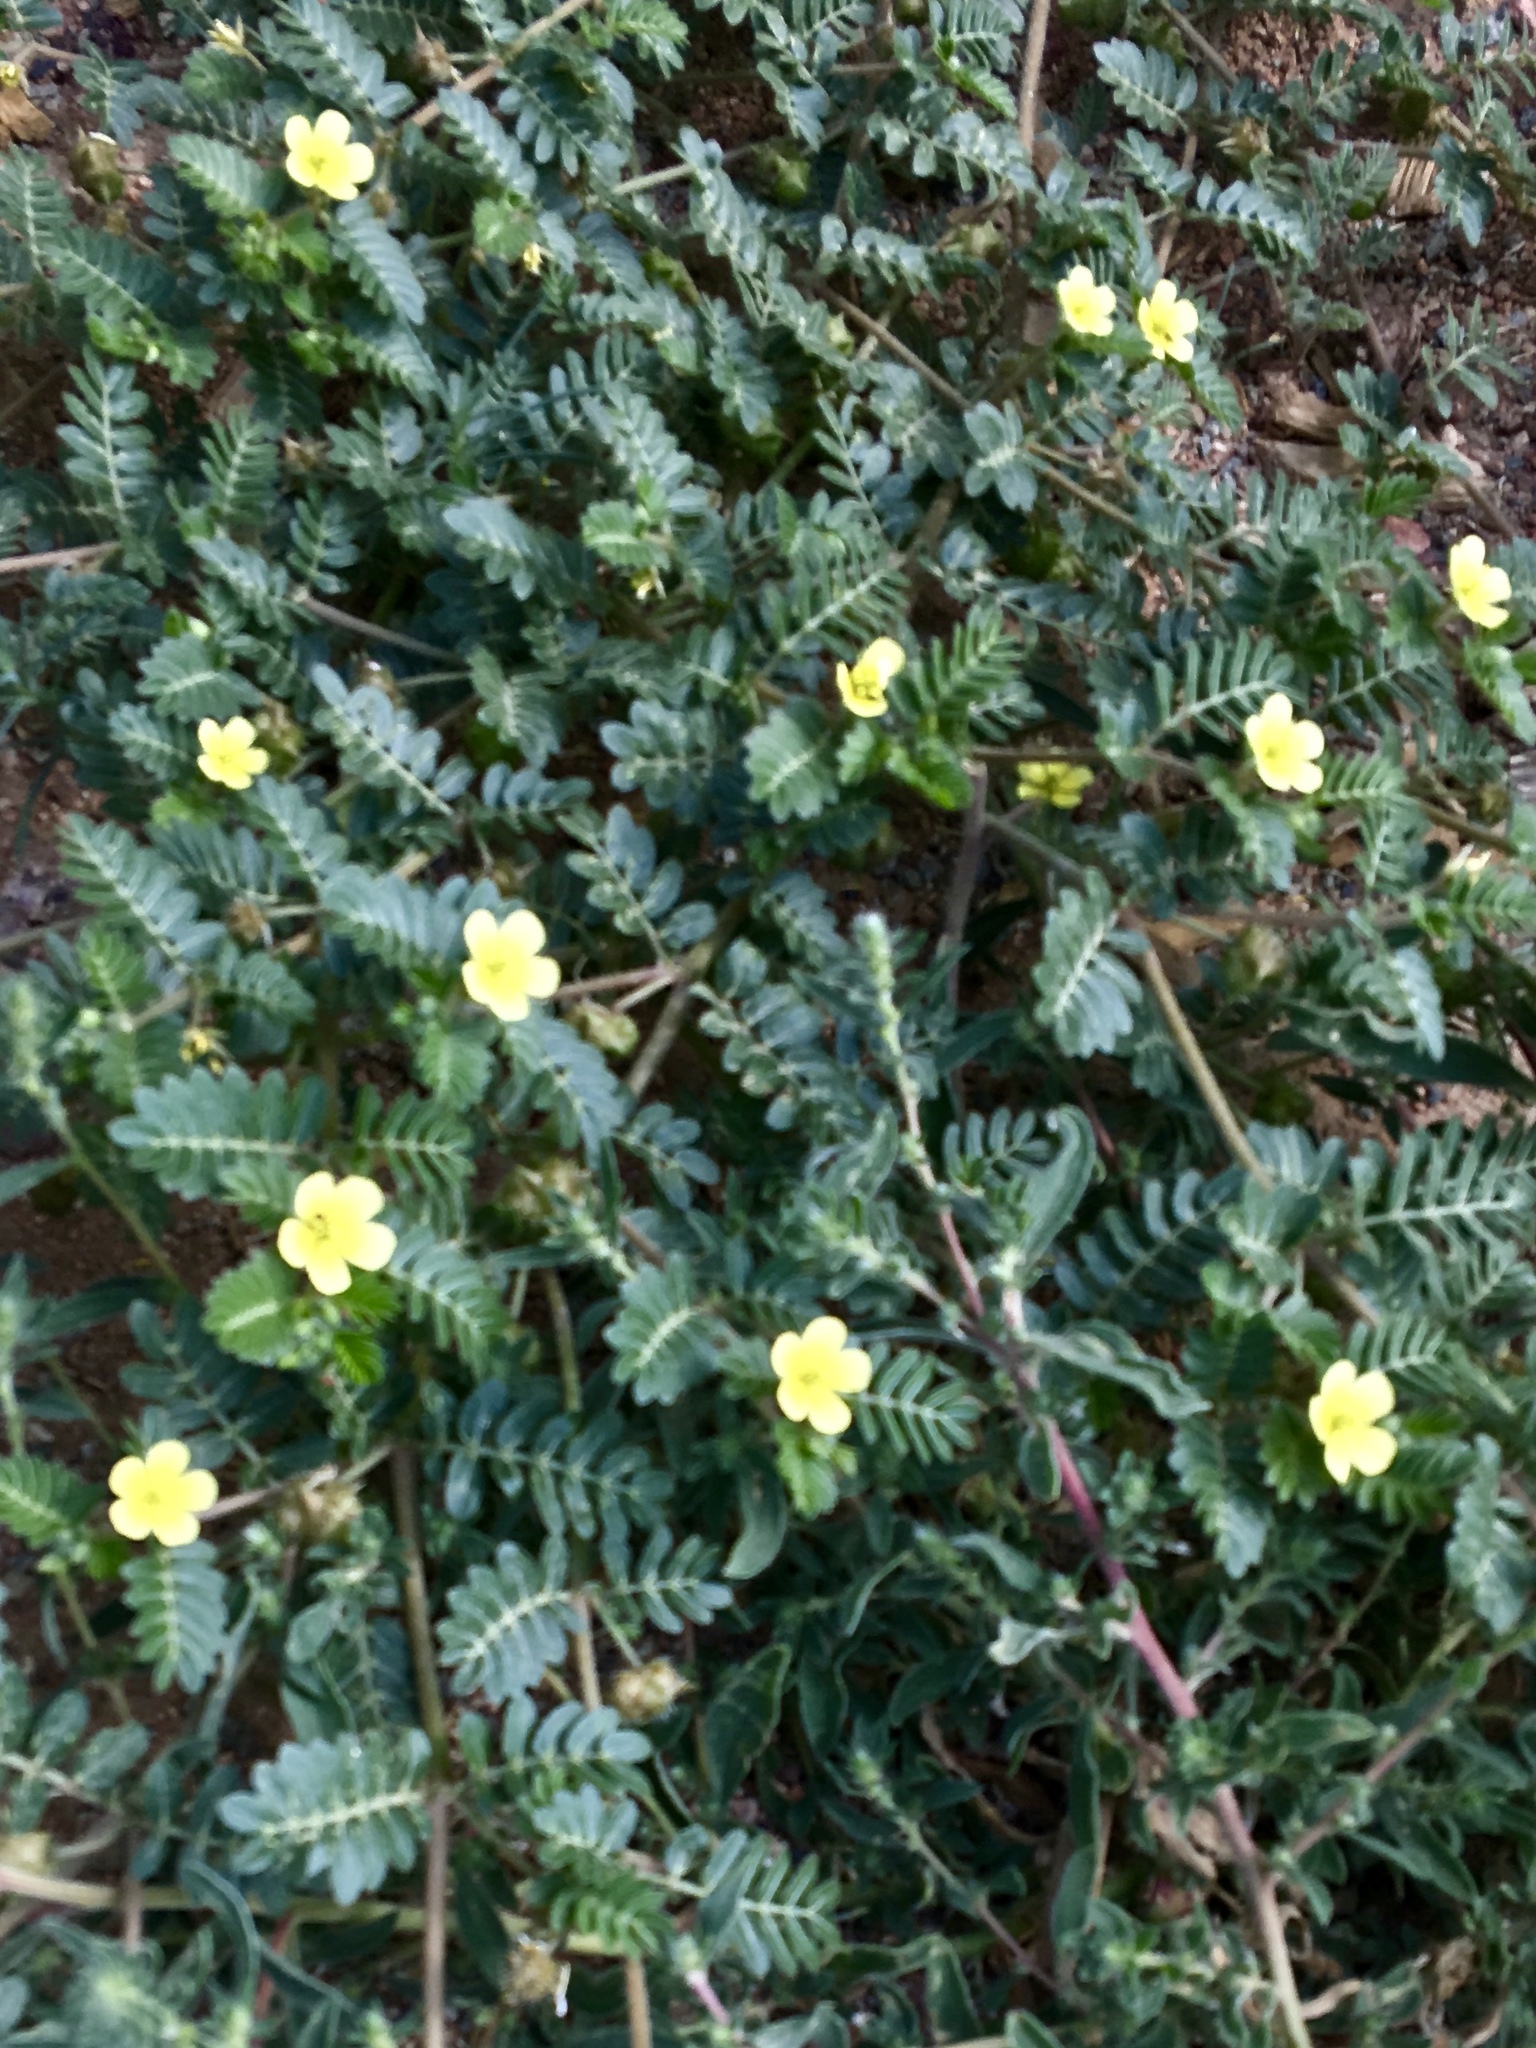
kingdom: Plantae
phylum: Tracheophyta
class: Magnoliopsida
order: Zygophyllales
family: Zygophyllaceae
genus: Tribulus
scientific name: Tribulus terrestris
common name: Puncturevine
